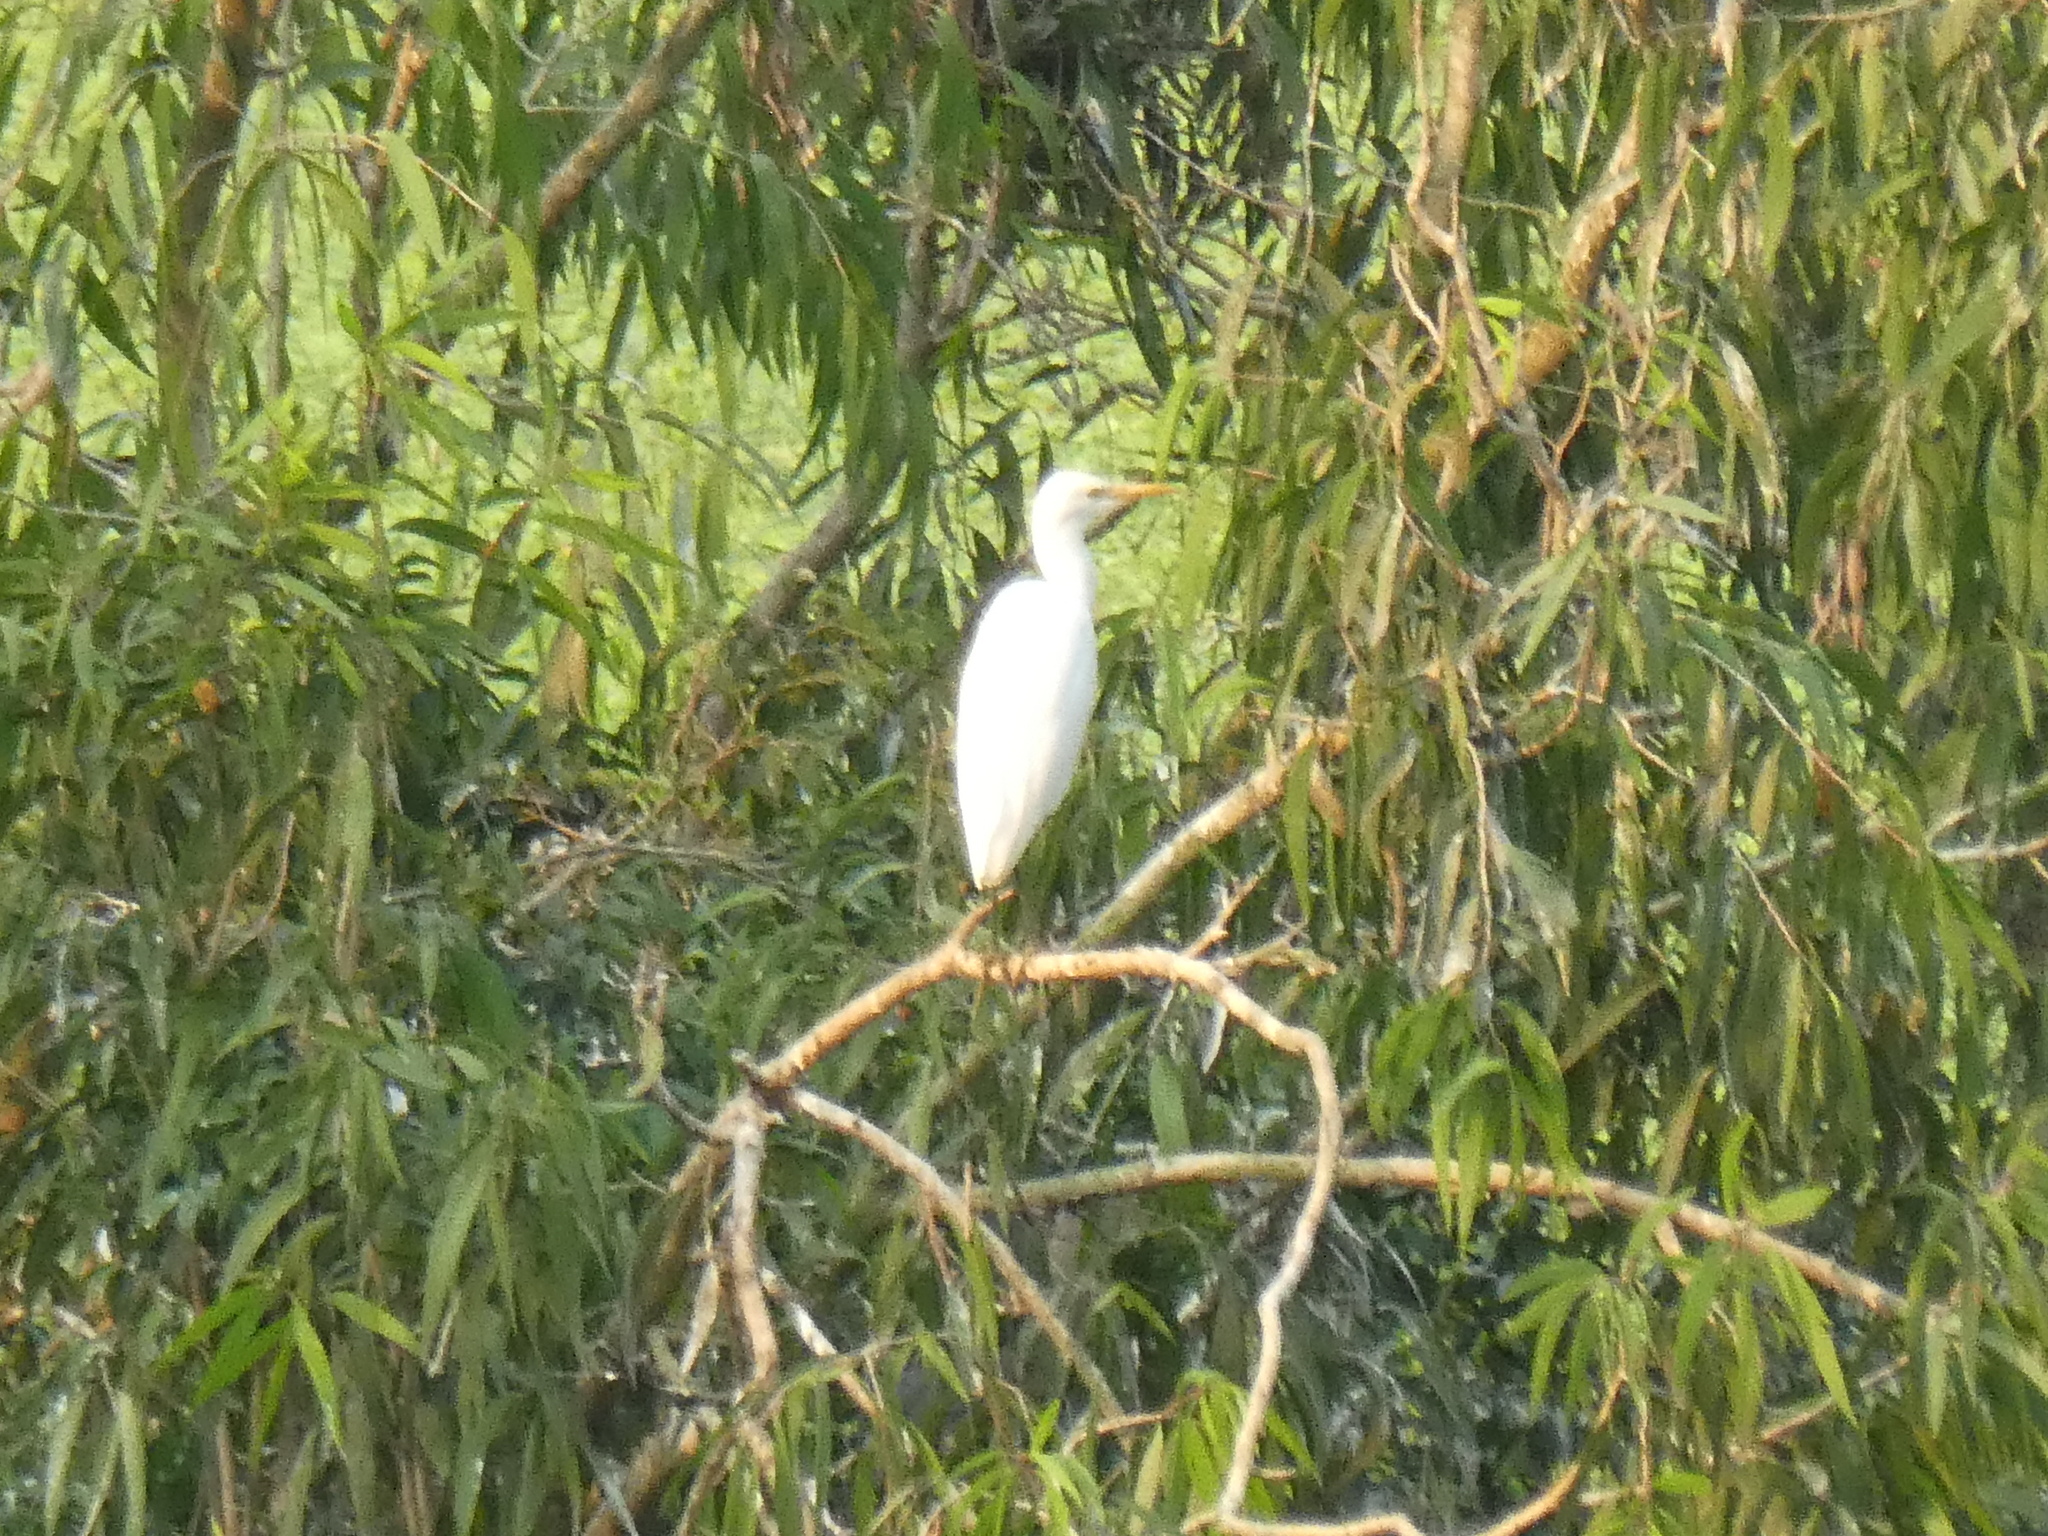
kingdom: Animalia
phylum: Chordata
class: Aves
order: Pelecaniformes
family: Ardeidae
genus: Bubulcus
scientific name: Bubulcus coromandus
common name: Eastern cattle egret
